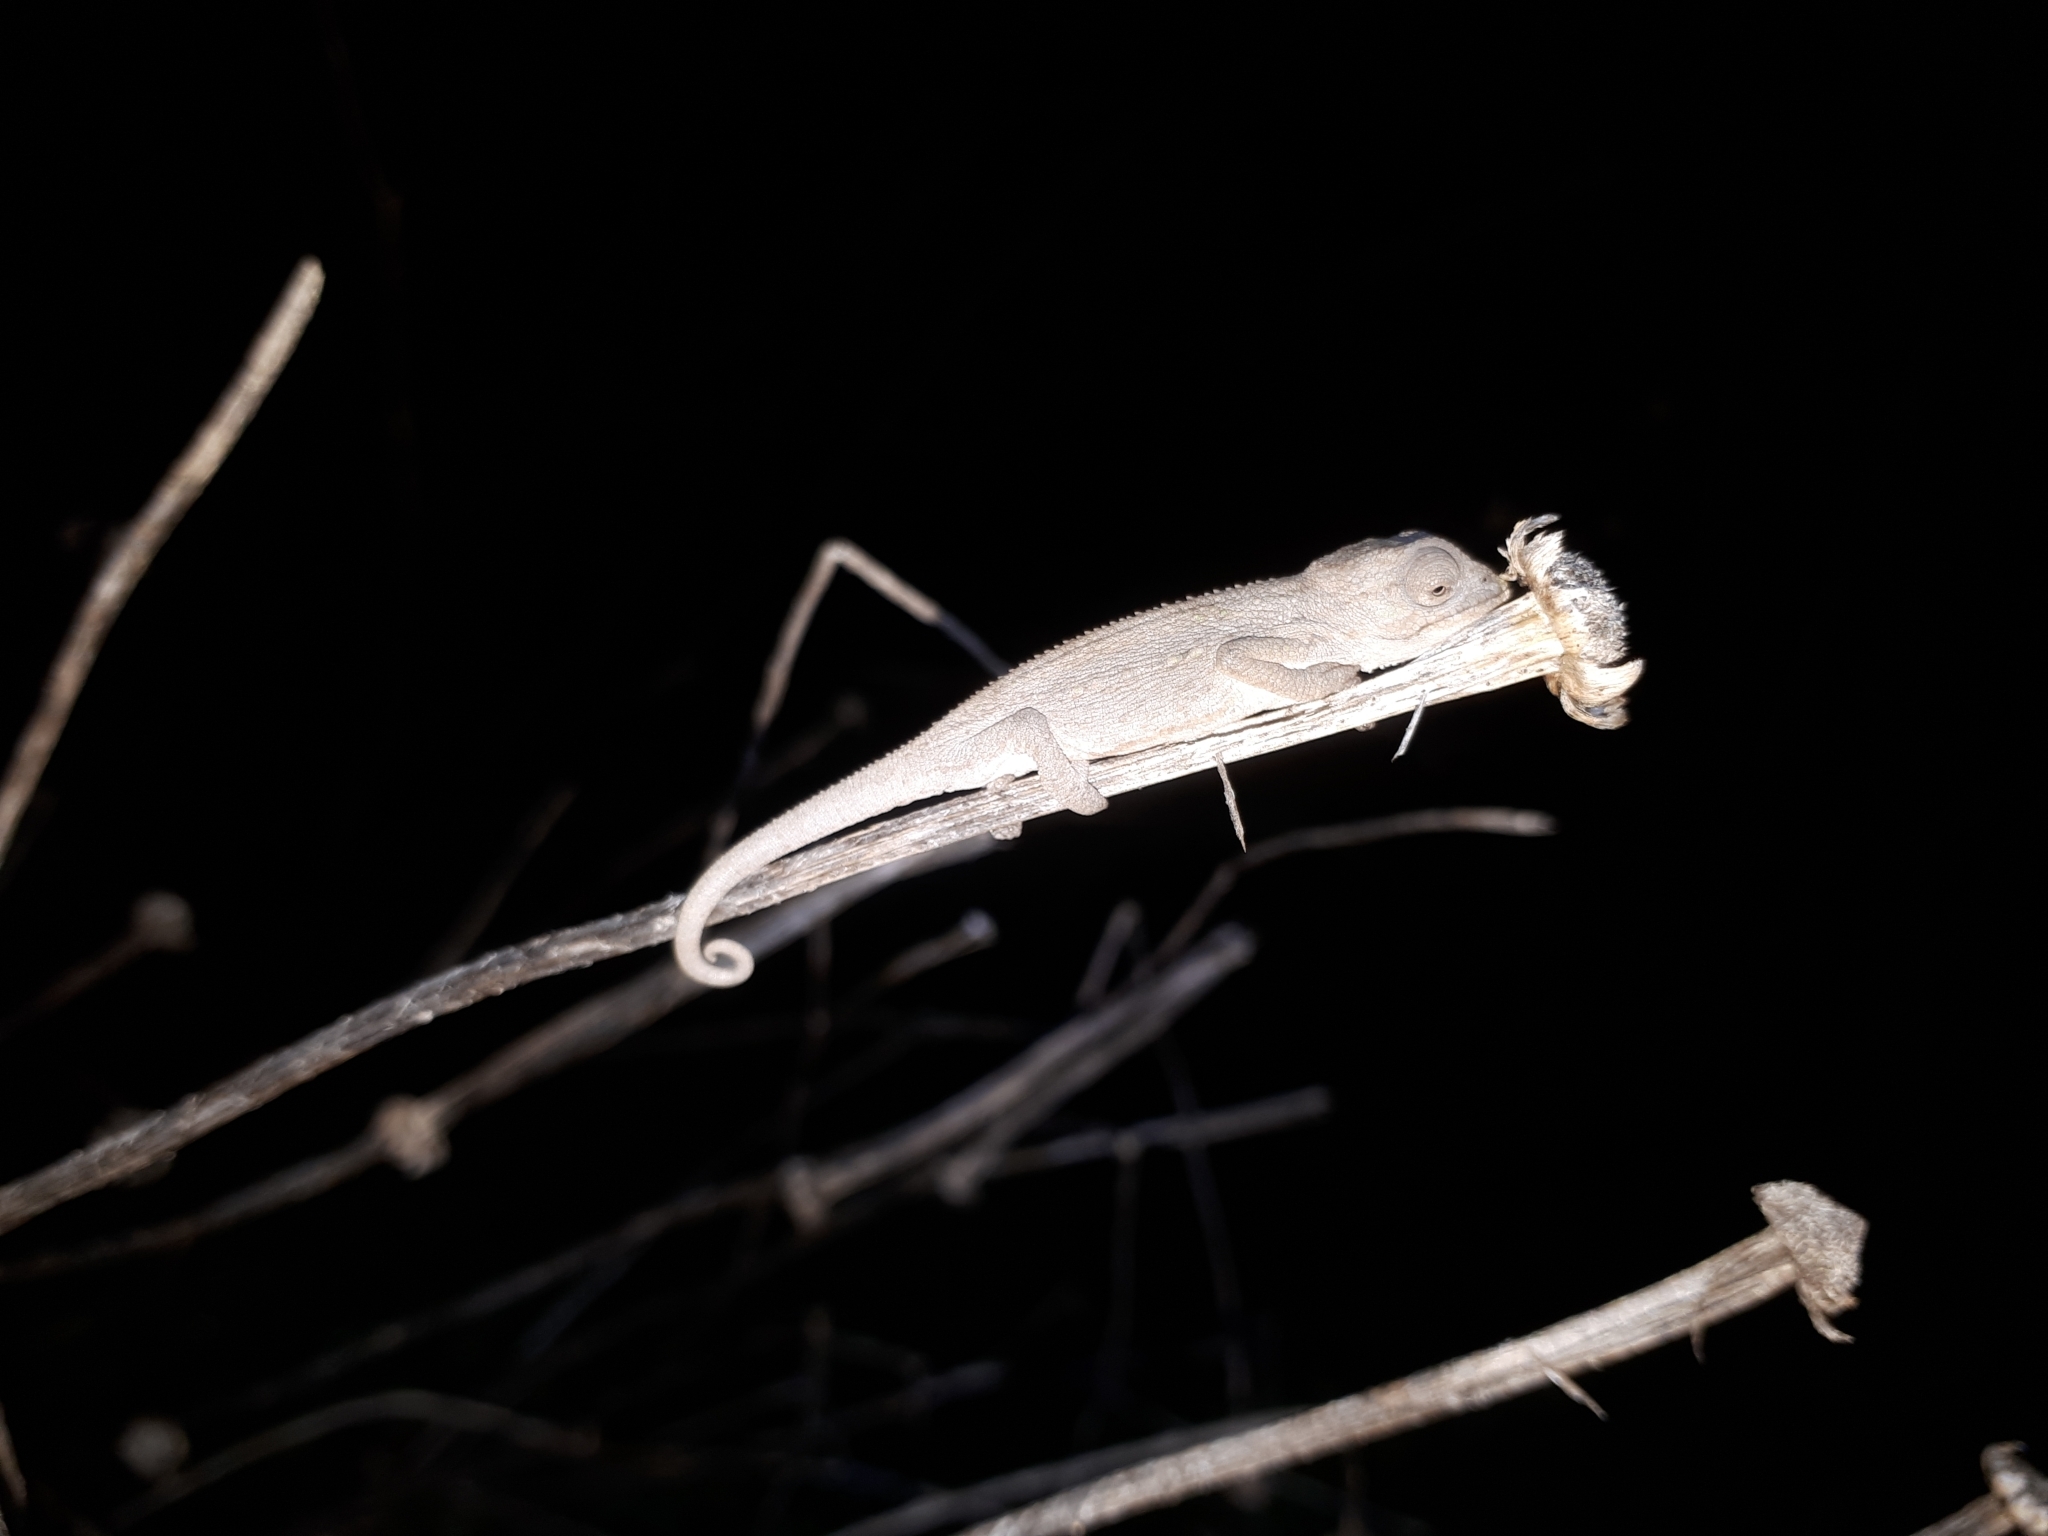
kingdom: Animalia
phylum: Chordata
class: Squamata
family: Chamaeleonidae
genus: Bradypodion
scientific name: Bradypodion pumilum
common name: Cape dwarf chameleon
